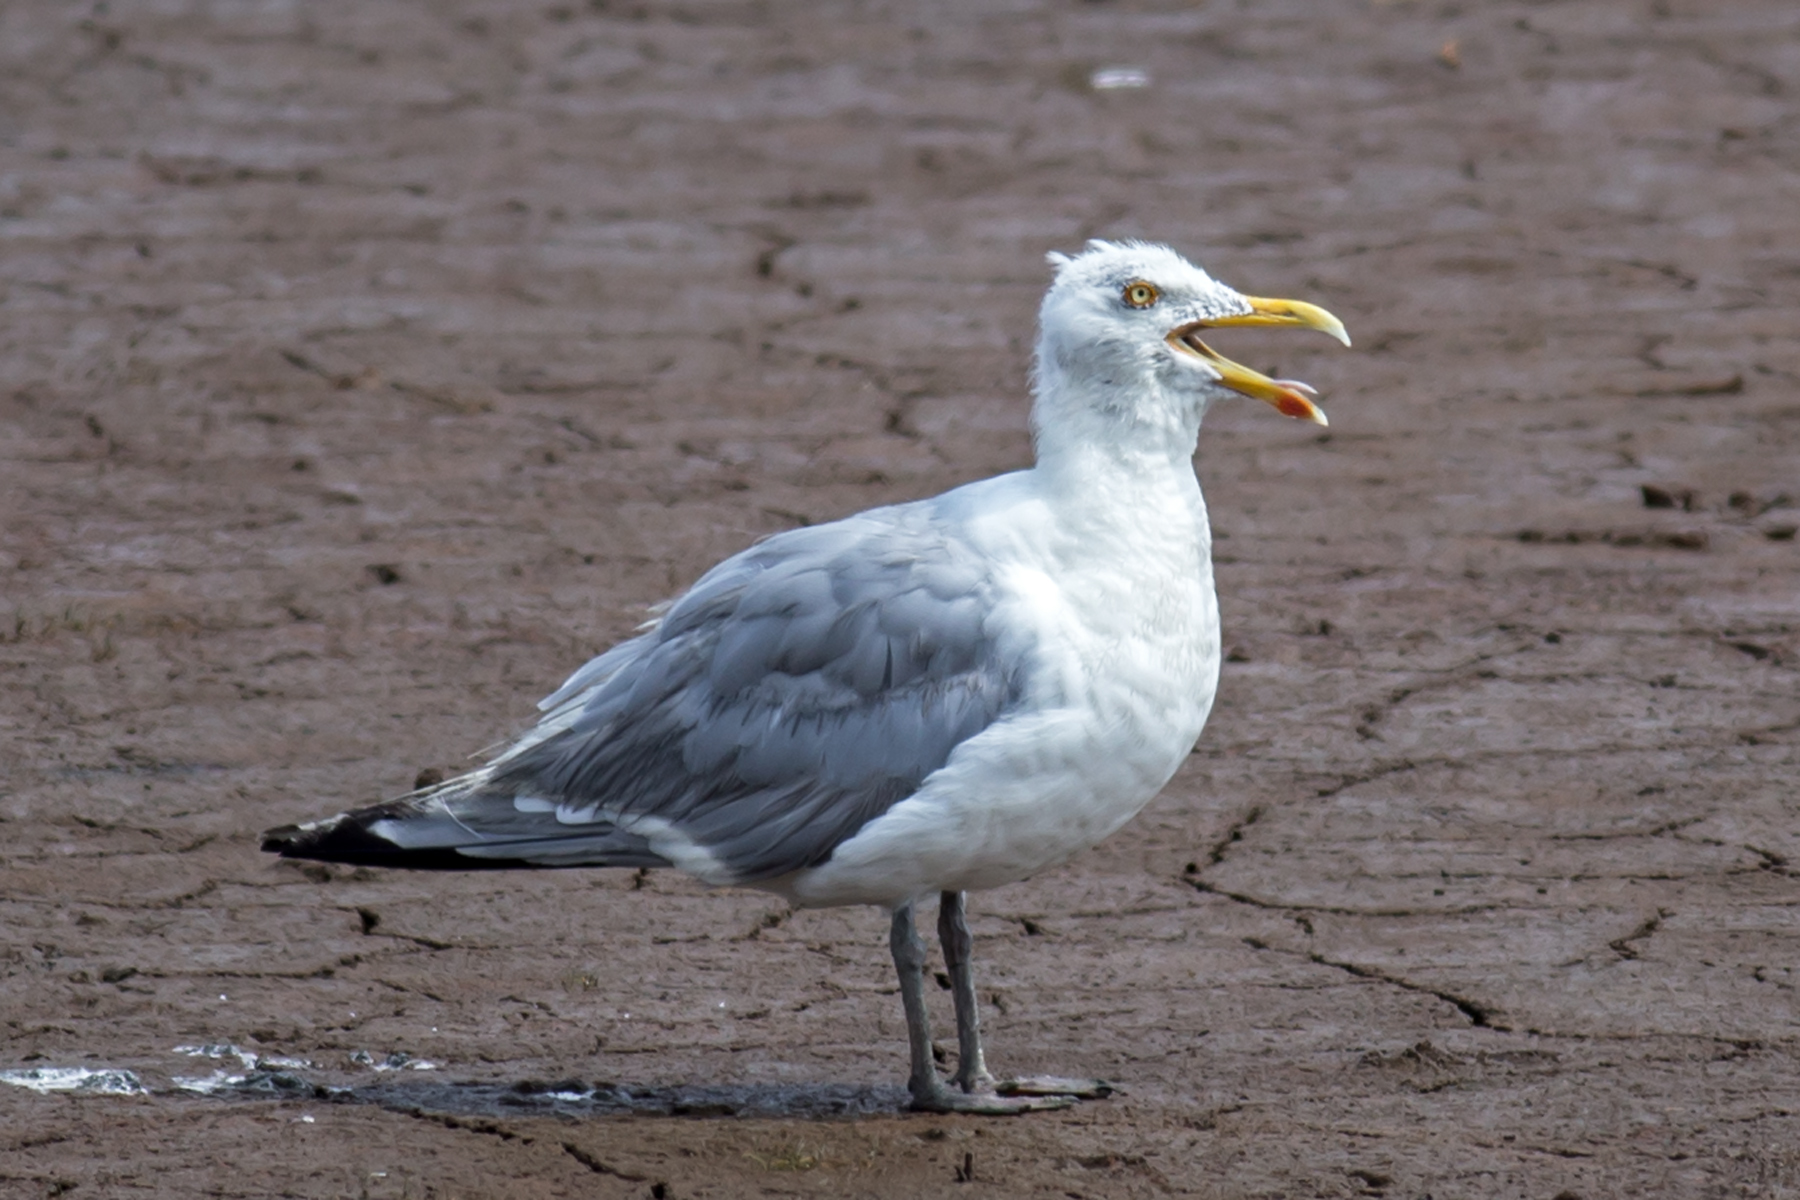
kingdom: Animalia
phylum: Chordata
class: Aves
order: Charadriiformes
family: Laridae
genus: Larus
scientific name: Larus argentatus
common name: Herring gull
